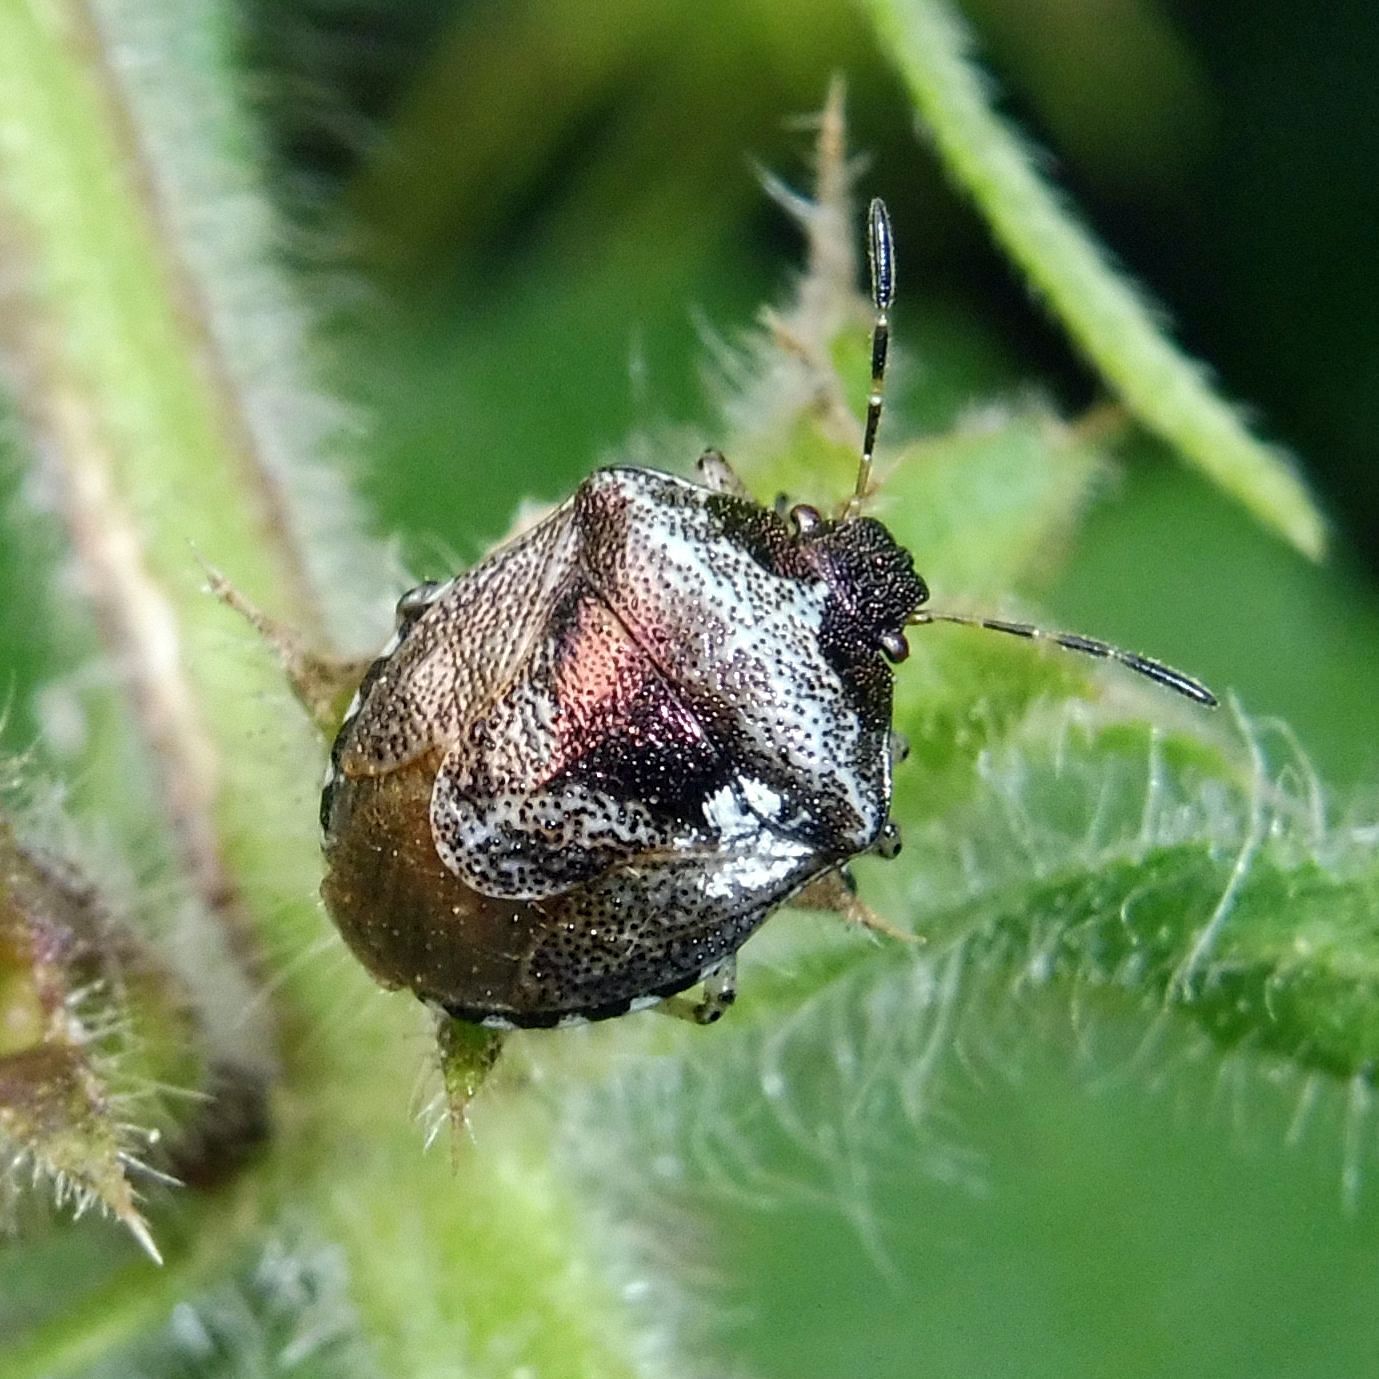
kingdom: Animalia
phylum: Arthropoda
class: Insecta
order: Hemiptera
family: Pentatomidae
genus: Eysarcoris
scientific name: Eysarcoris venustissimus
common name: Woundwort shieldbug
